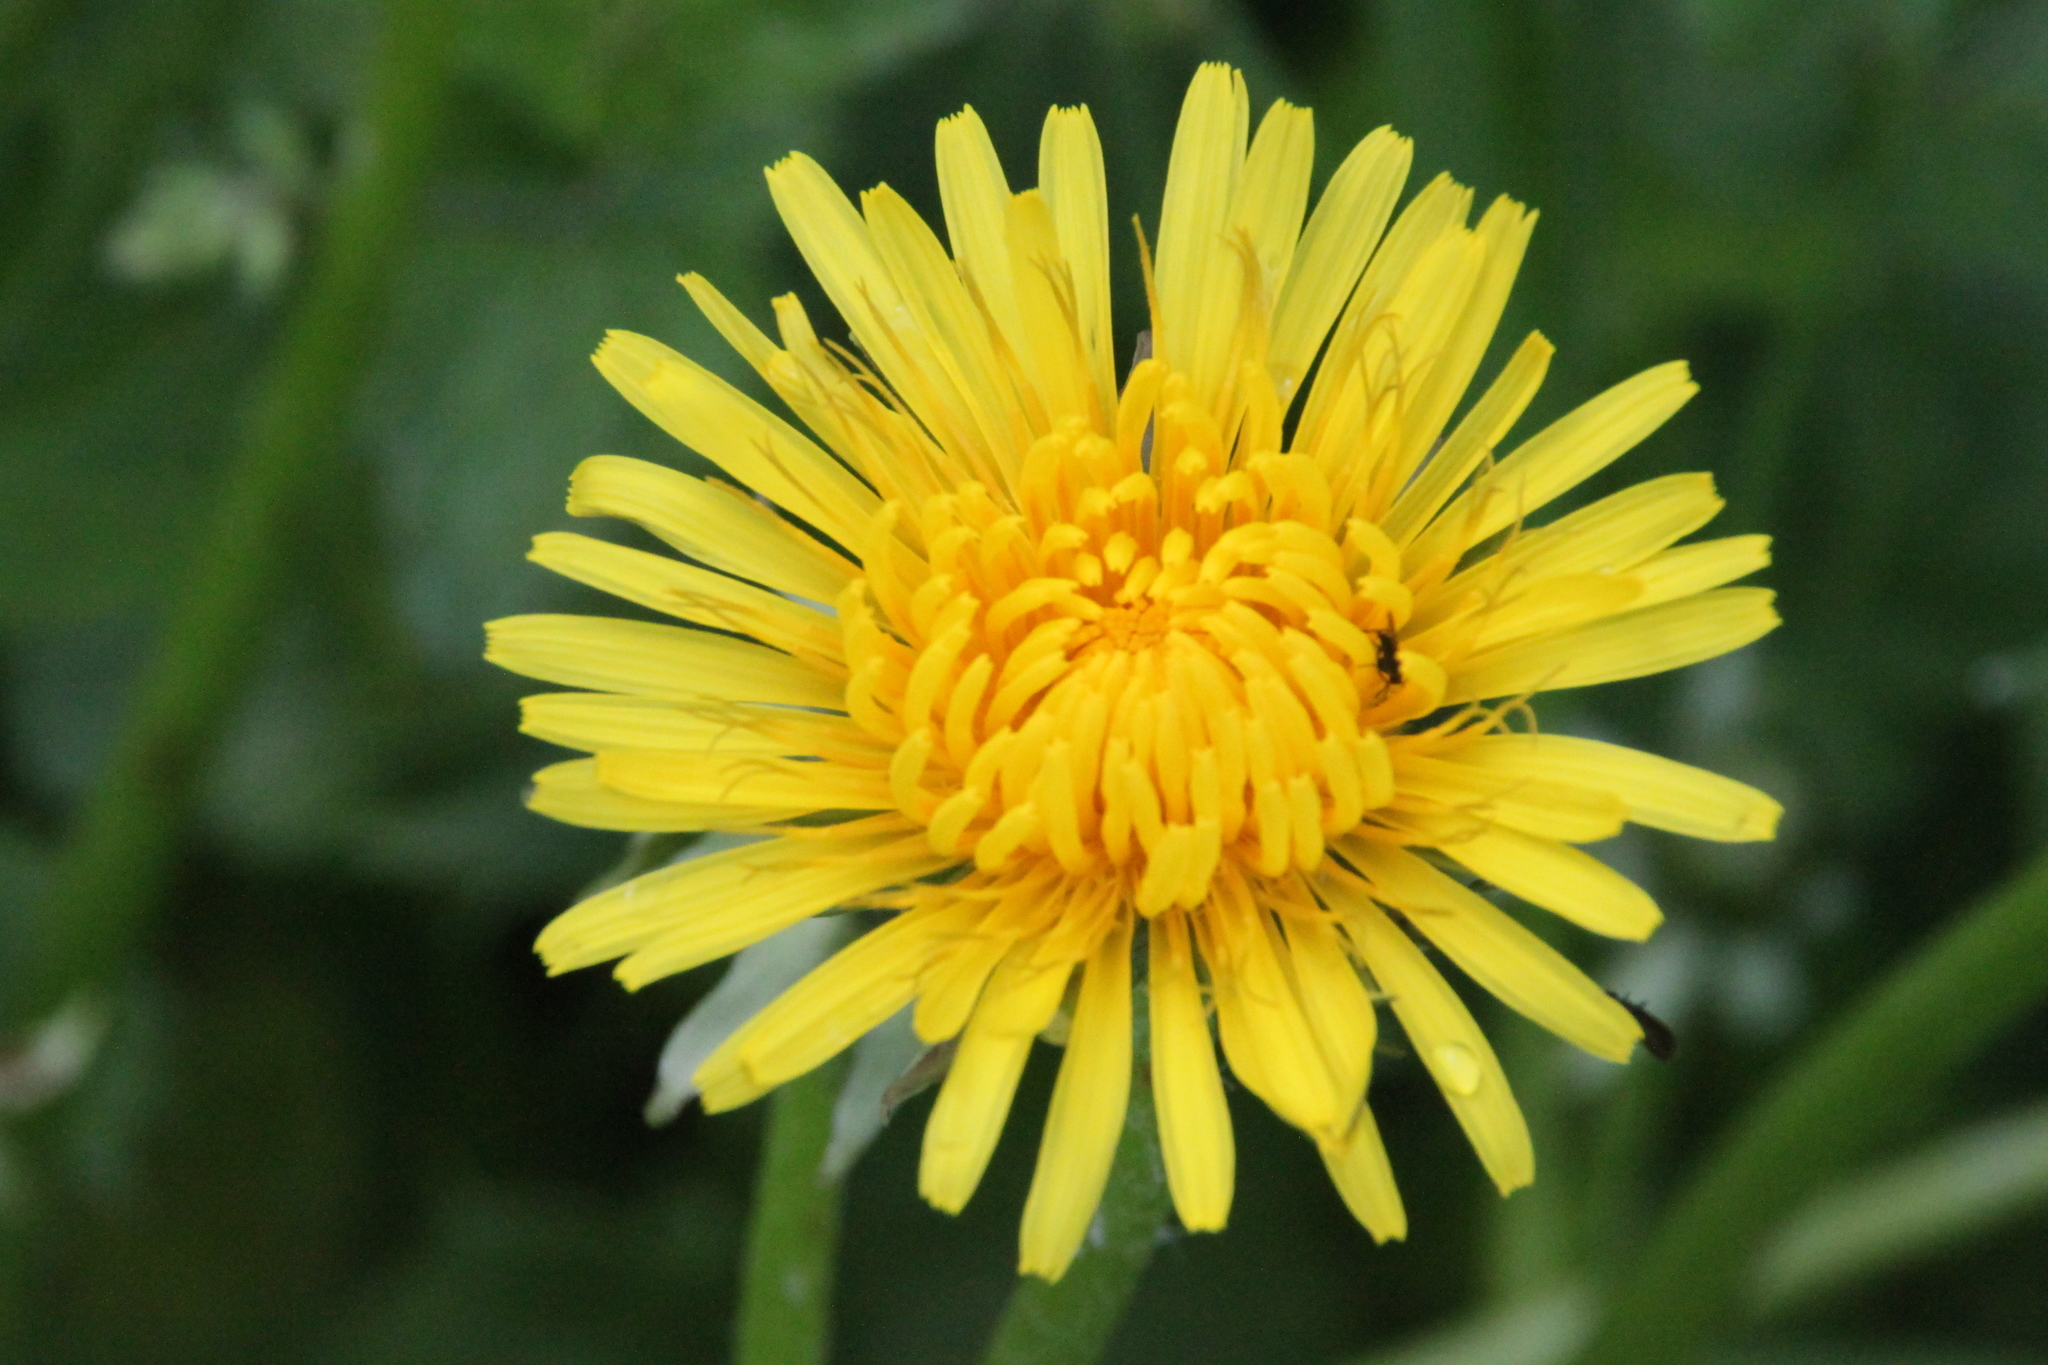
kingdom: Plantae
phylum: Tracheophyta
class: Magnoliopsida
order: Asterales
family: Asteraceae
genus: Taraxacum
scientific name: Taraxacum officinale
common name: Common dandelion
